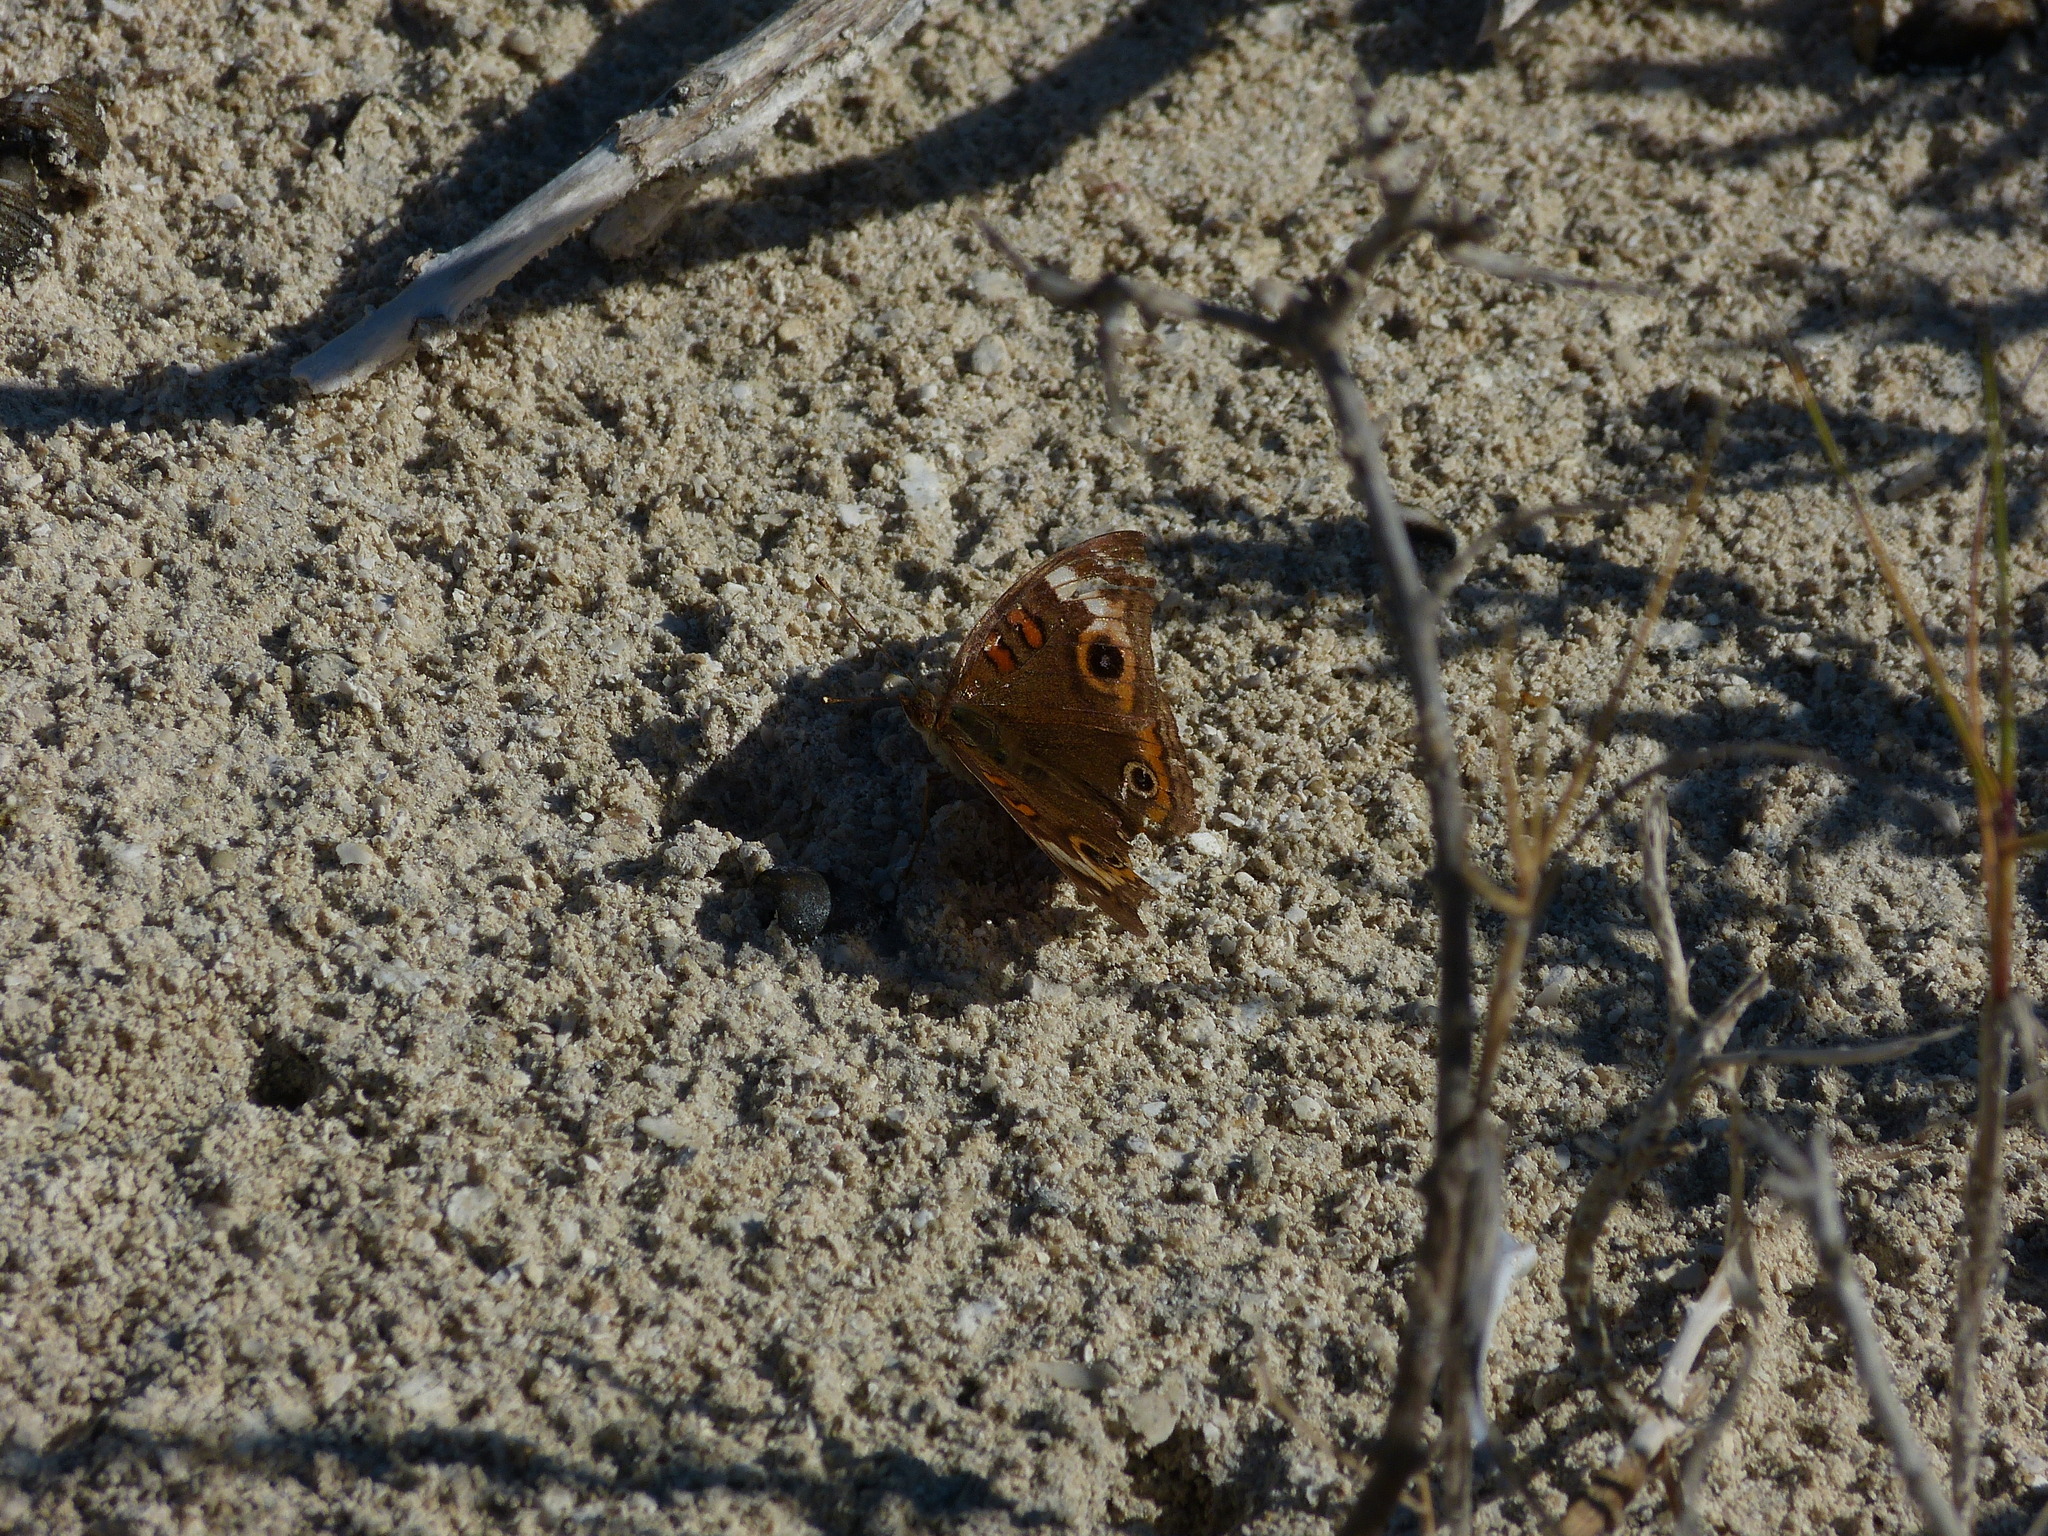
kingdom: Animalia
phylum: Arthropoda
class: Insecta
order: Lepidoptera
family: Nymphalidae
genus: Junonia
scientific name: Junonia neildi
